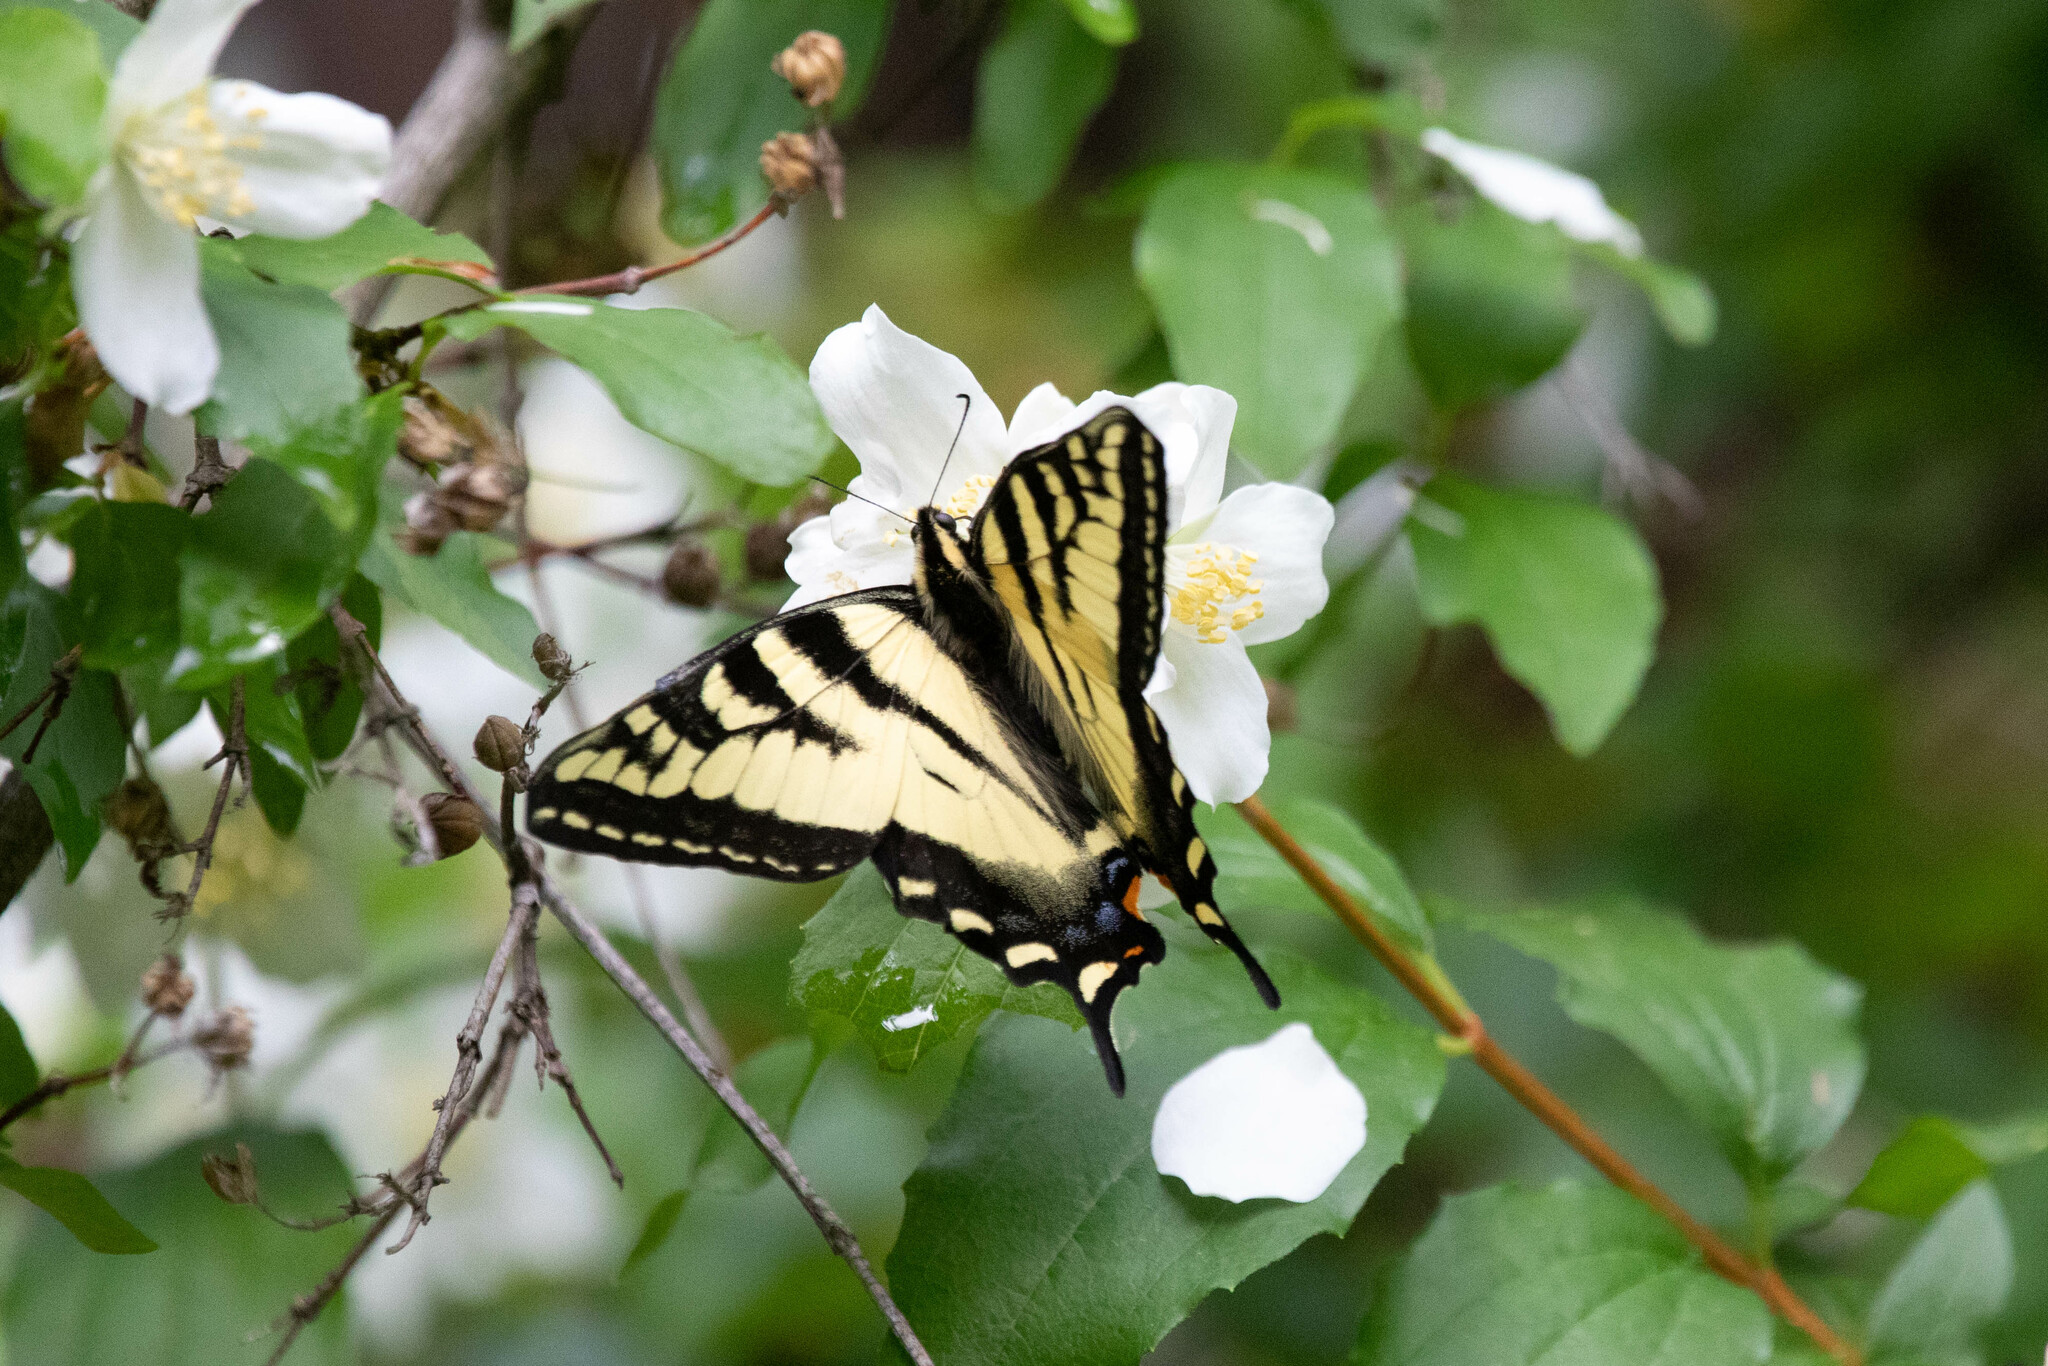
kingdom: Animalia
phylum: Arthropoda
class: Insecta
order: Lepidoptera
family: Papilionidae
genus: Papilio
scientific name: Papilio rutulus
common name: Western tiger swallowtail
